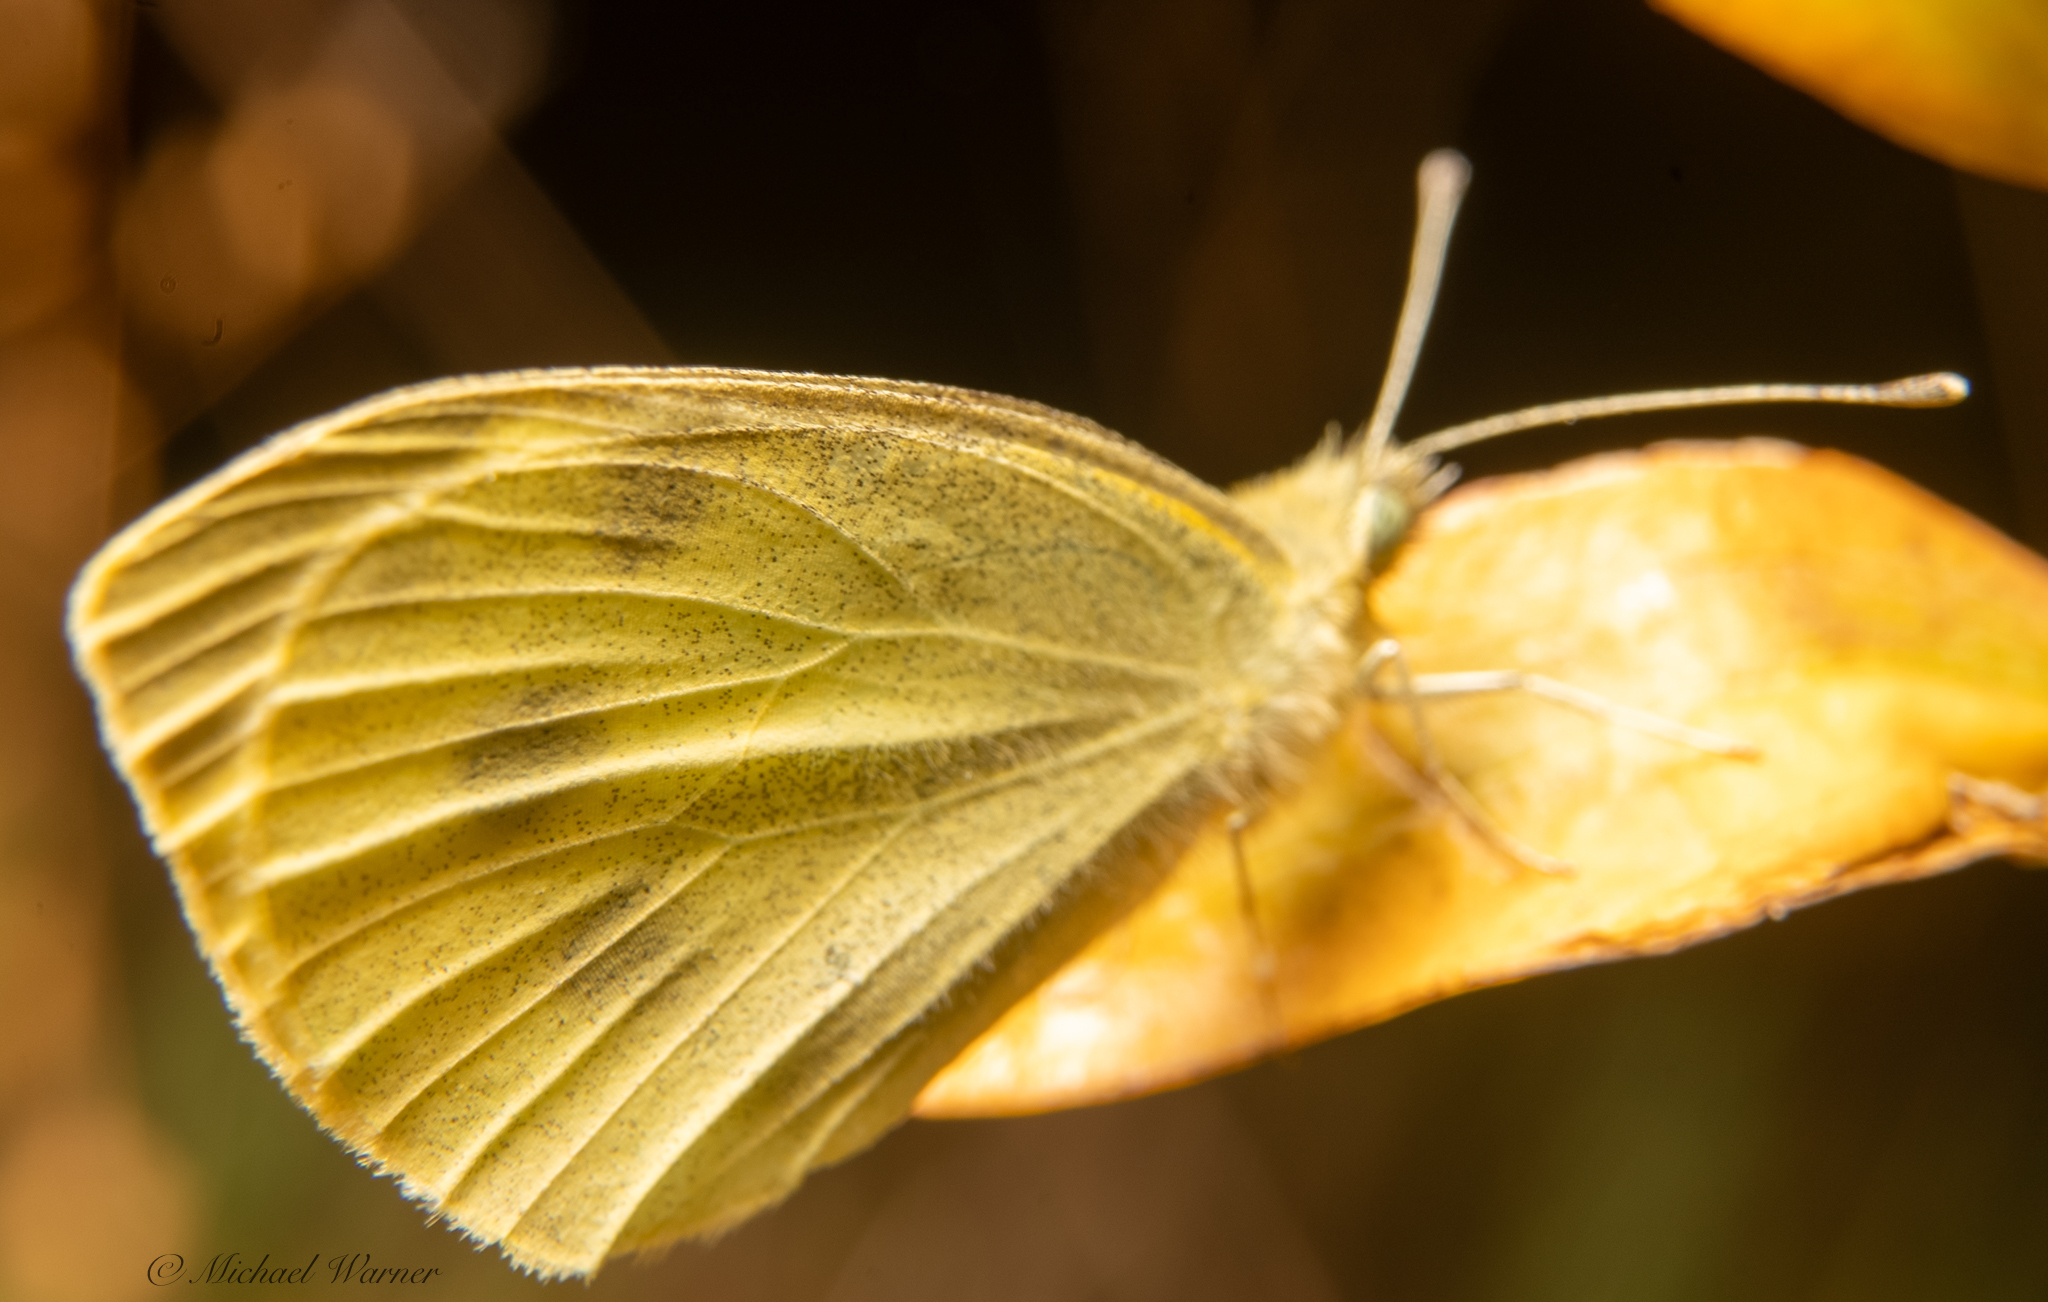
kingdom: Animalia
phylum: Arthropoda
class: Insecta
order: Lepidoptera
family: Pieridae
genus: Pieris
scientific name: Pieris rapae
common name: Small white
